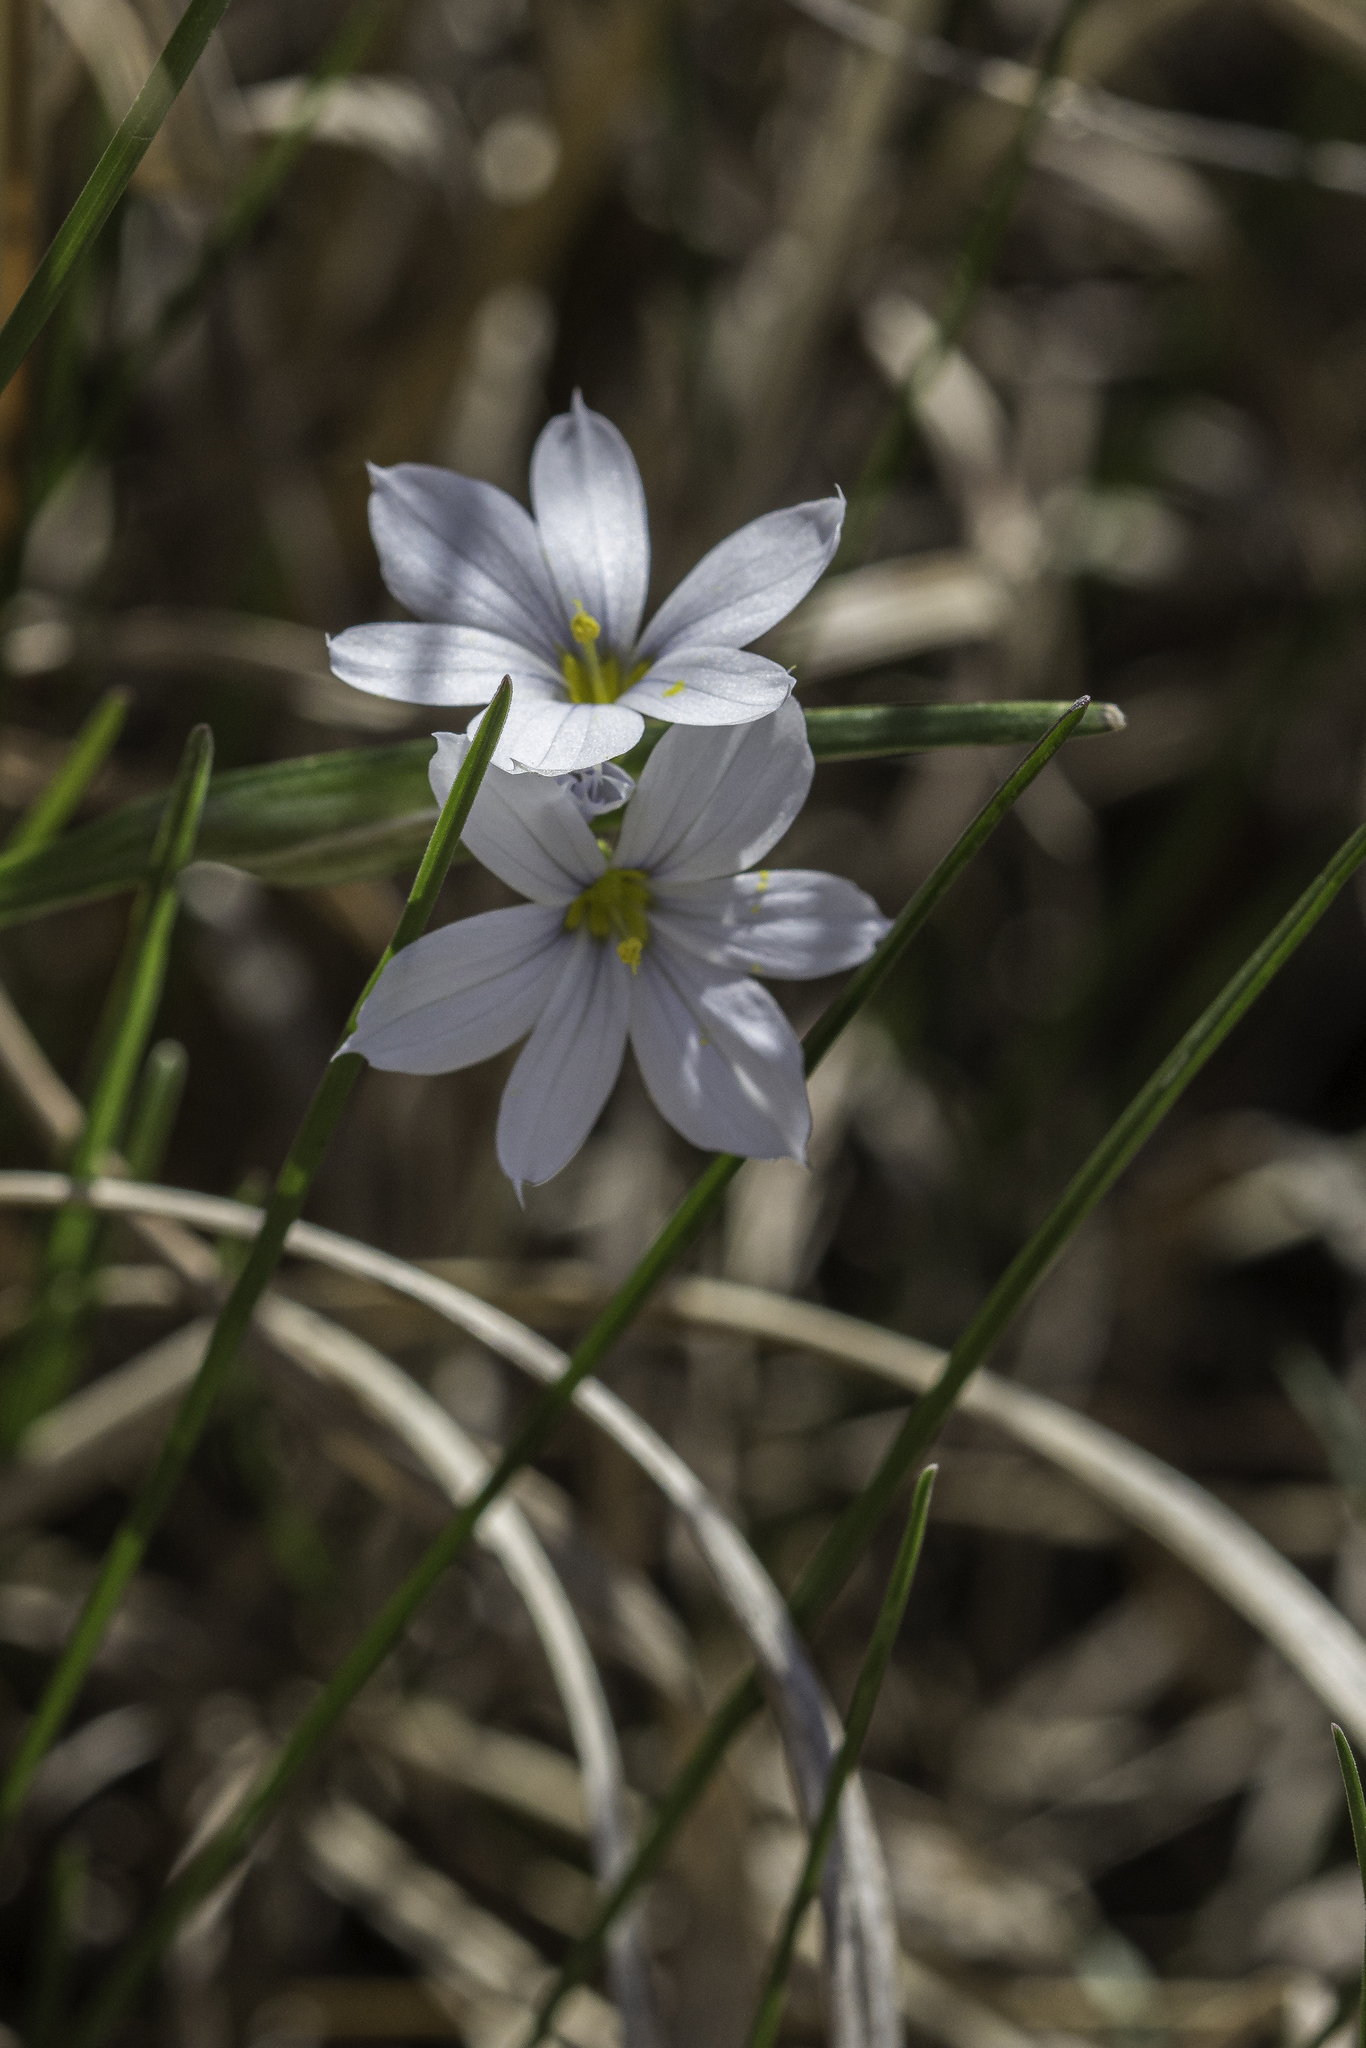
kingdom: Plantae
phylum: Tracheophyta
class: Liliopsida
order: Asparagales
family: Iridaceae
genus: Sisyrinchium
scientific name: Sisyrinchium campestre
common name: Prairie blue-eyed-grass
